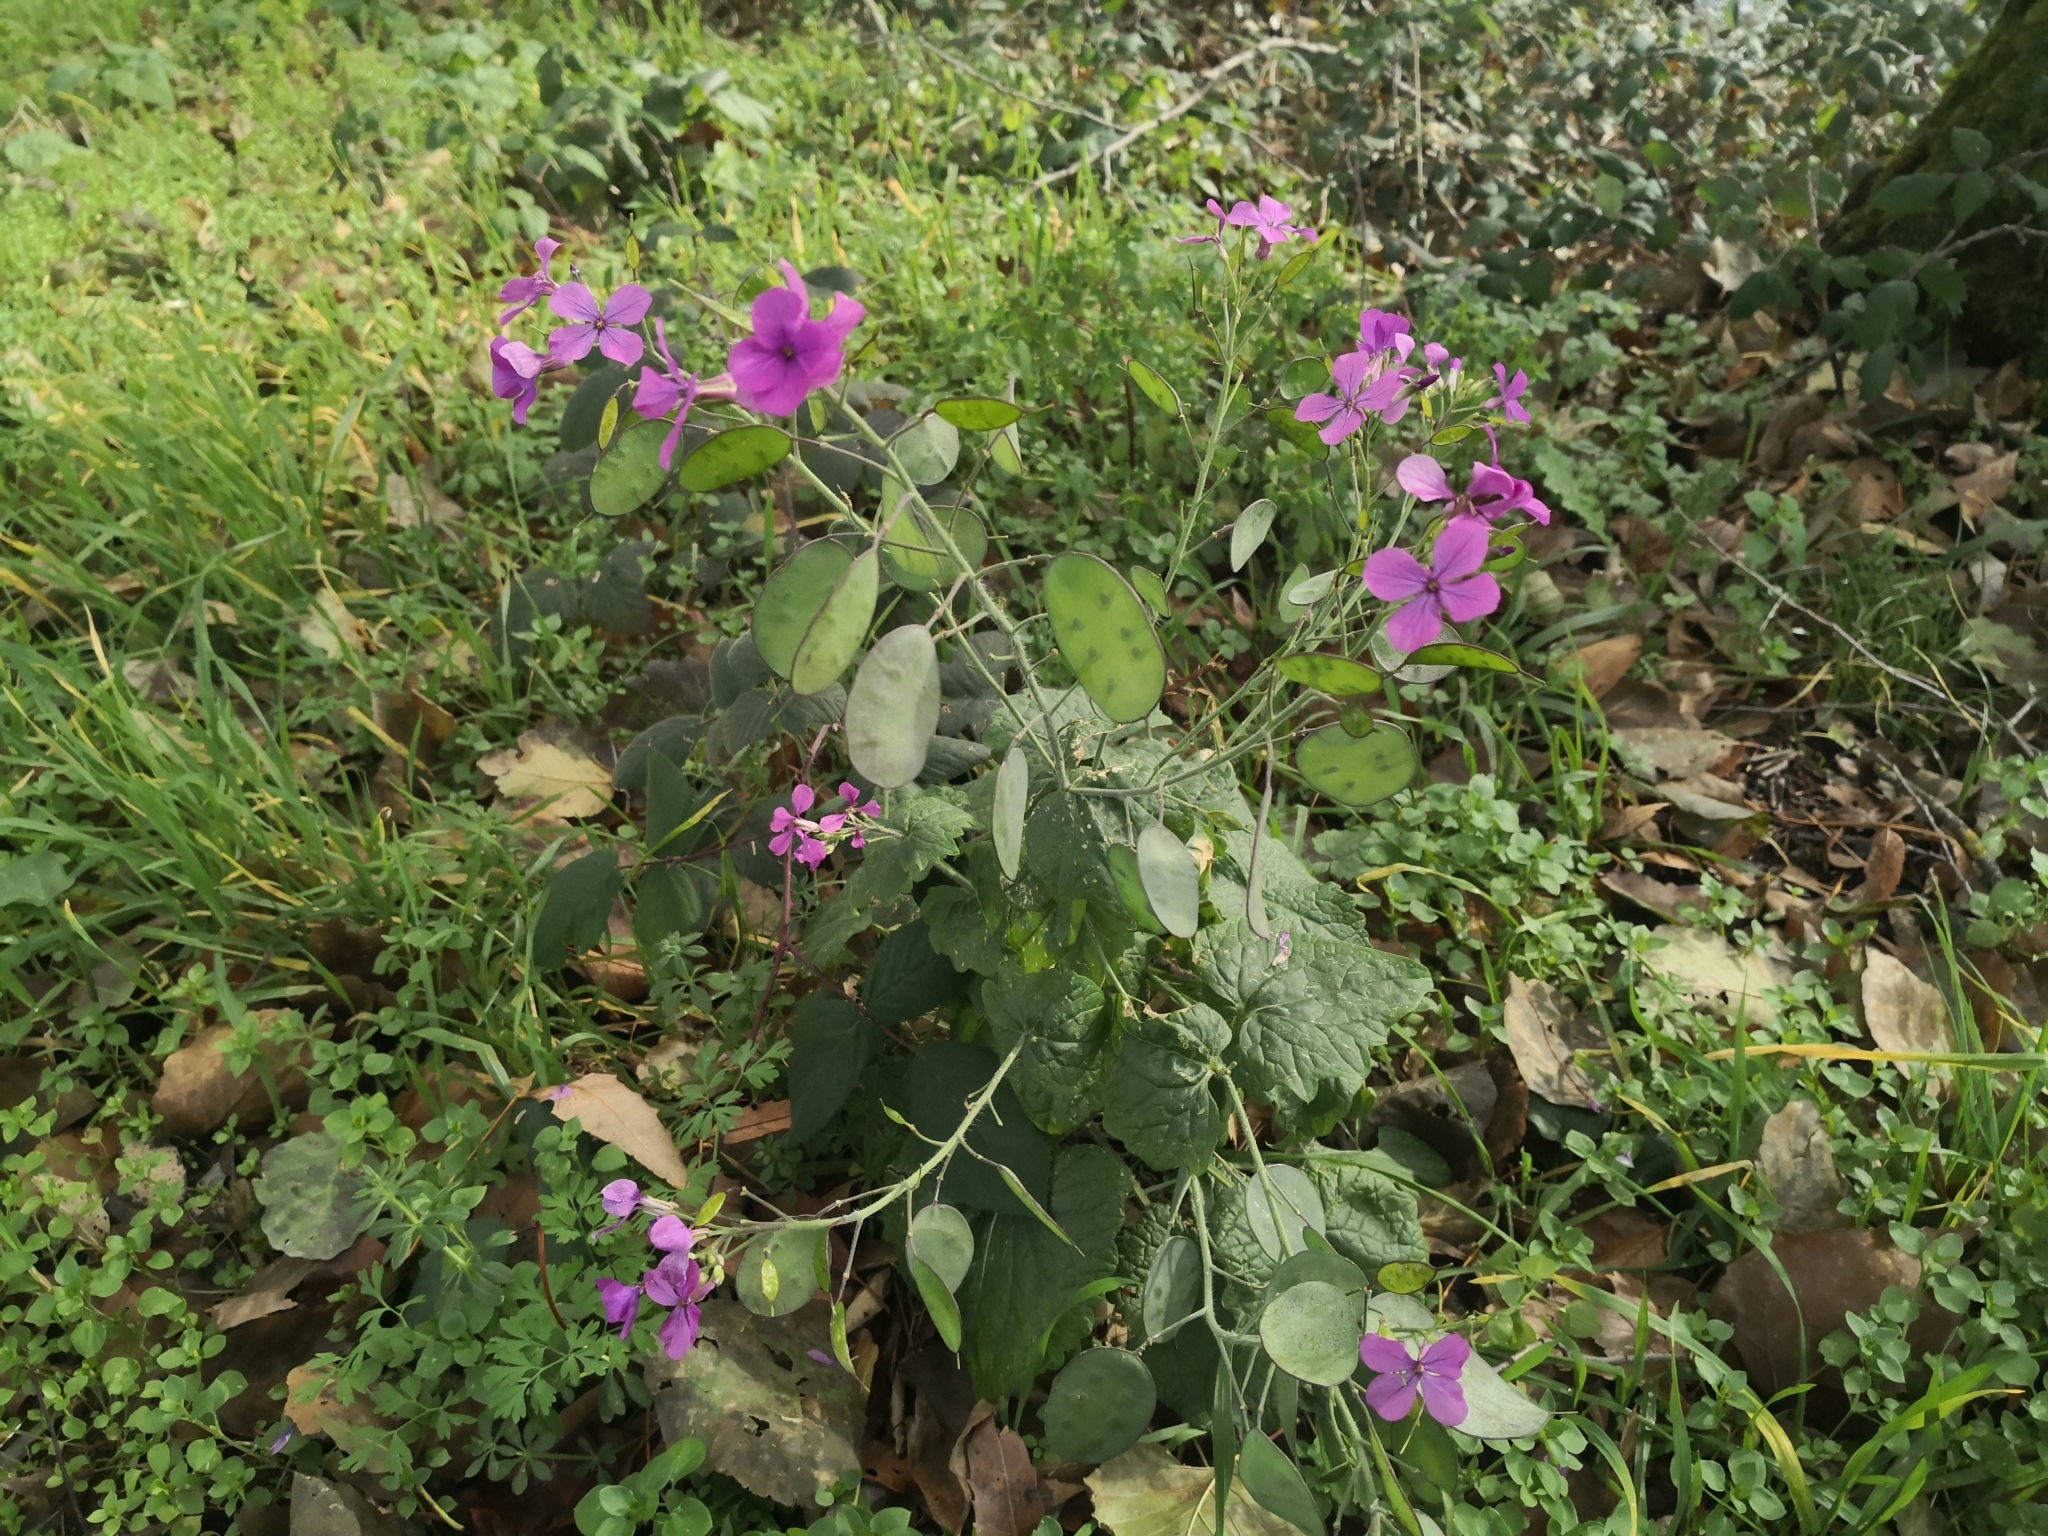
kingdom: Plantae
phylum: Tracheophyta
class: Magnoliopsida
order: Brassicales
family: Brassicaceae
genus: Lunaria
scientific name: Lunaria annua
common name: Honesty
